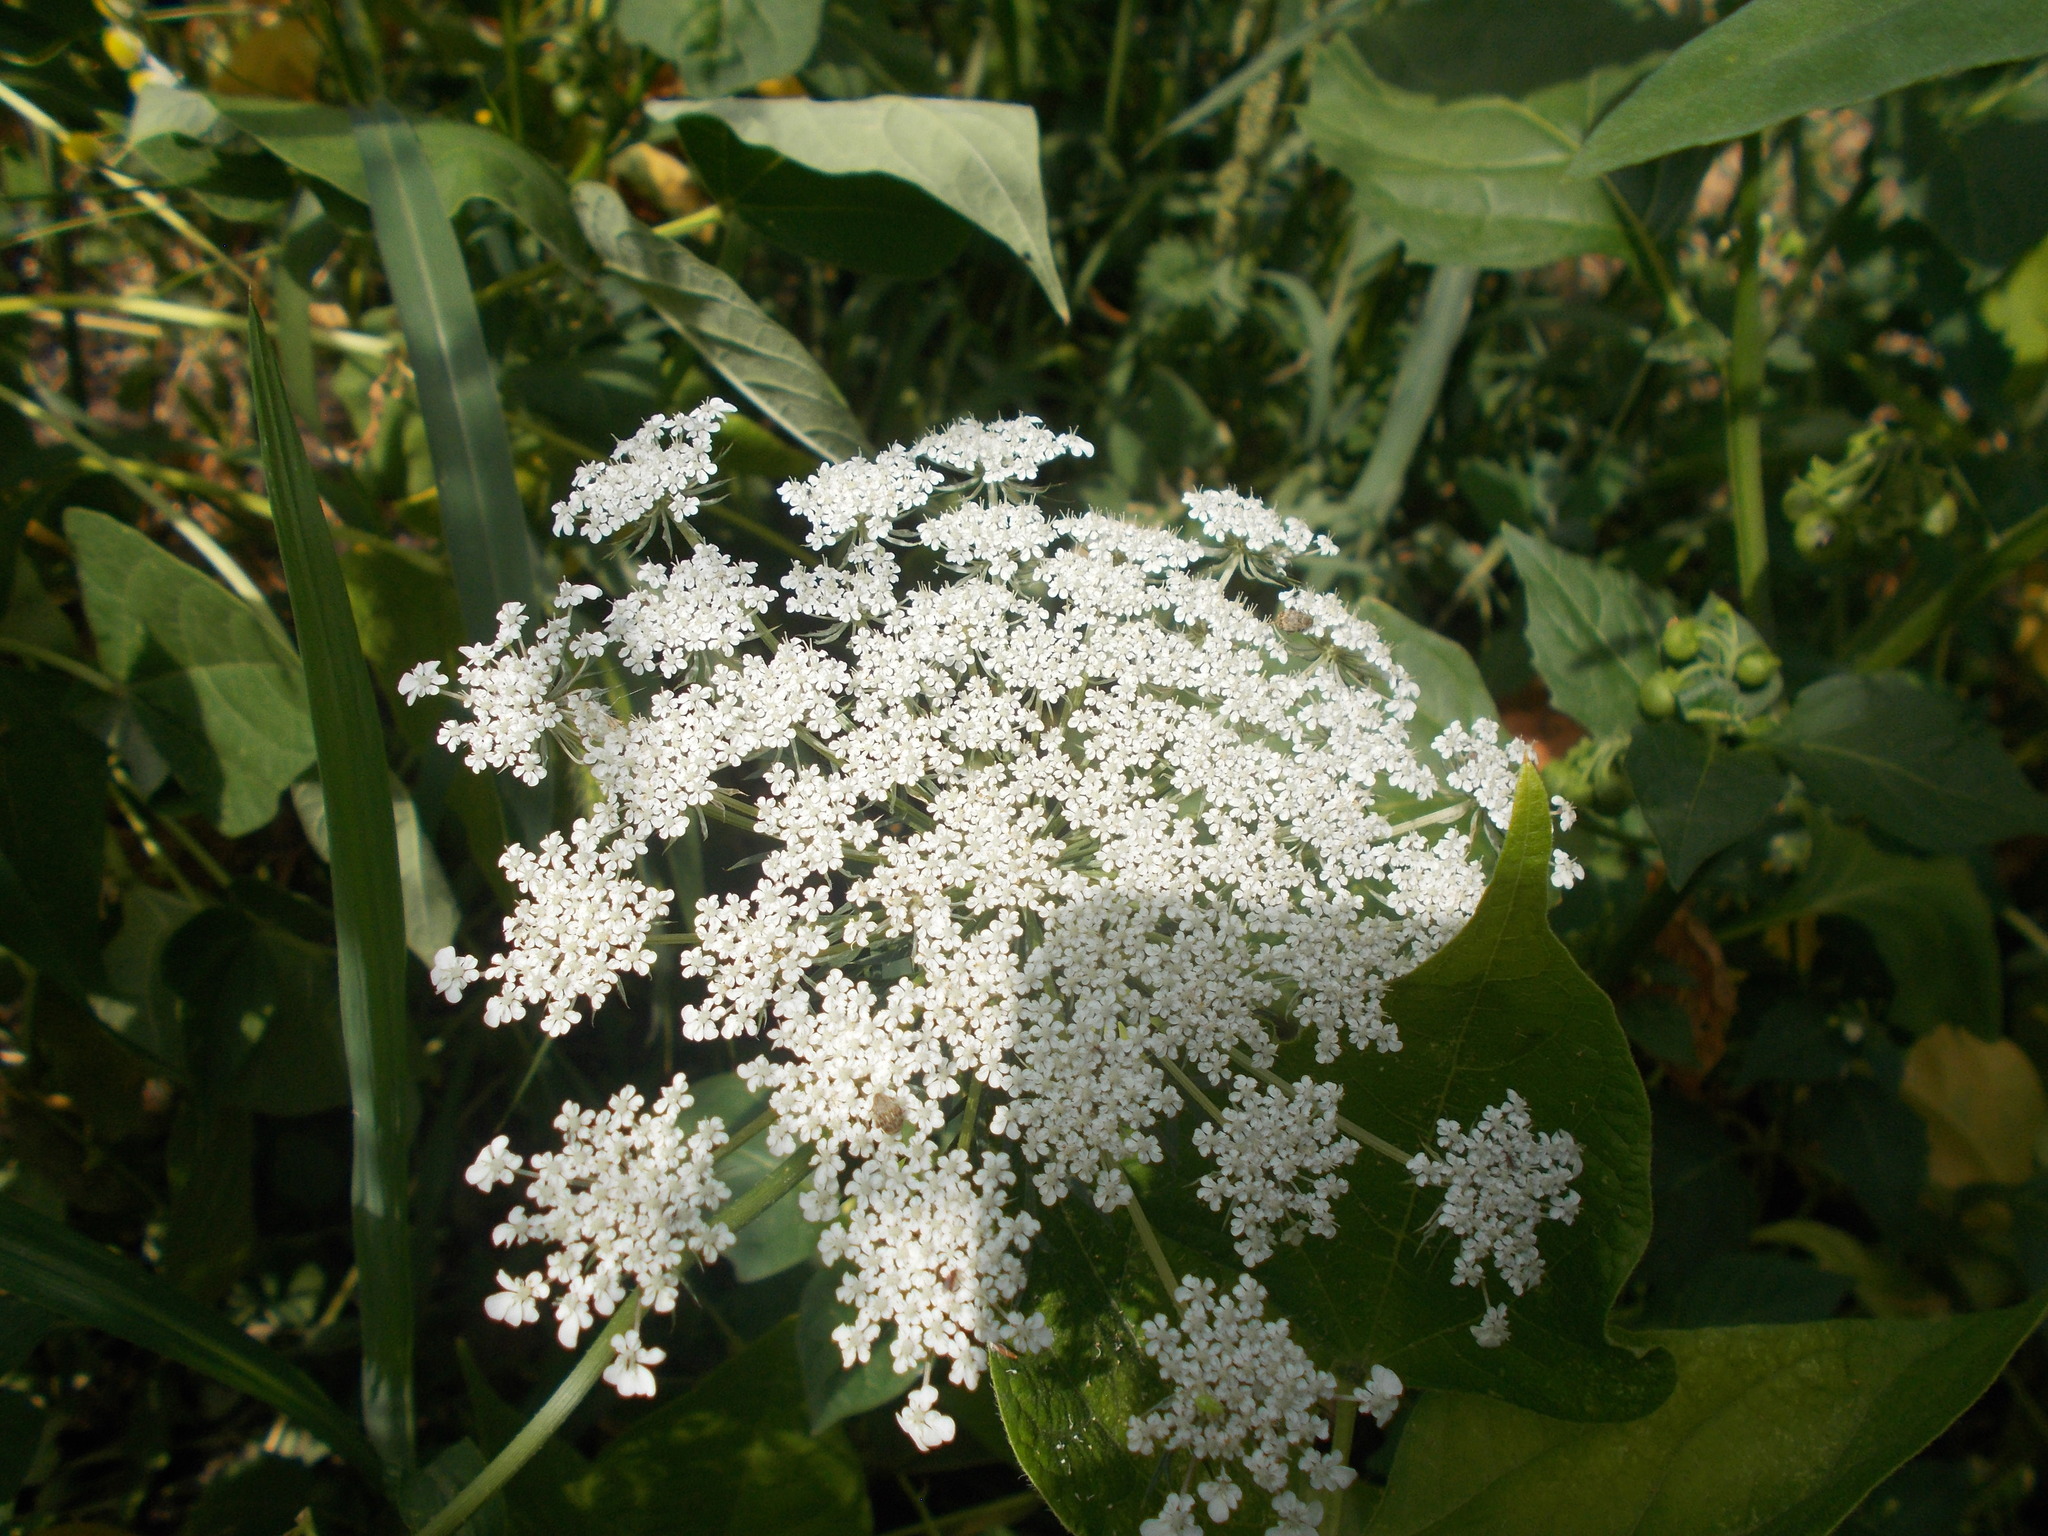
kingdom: Plantae
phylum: Tracheophyta
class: Magnoliopsida
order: Apiales
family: Apiaceae
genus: Daucus
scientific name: Daucus carota
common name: Wild carrot
